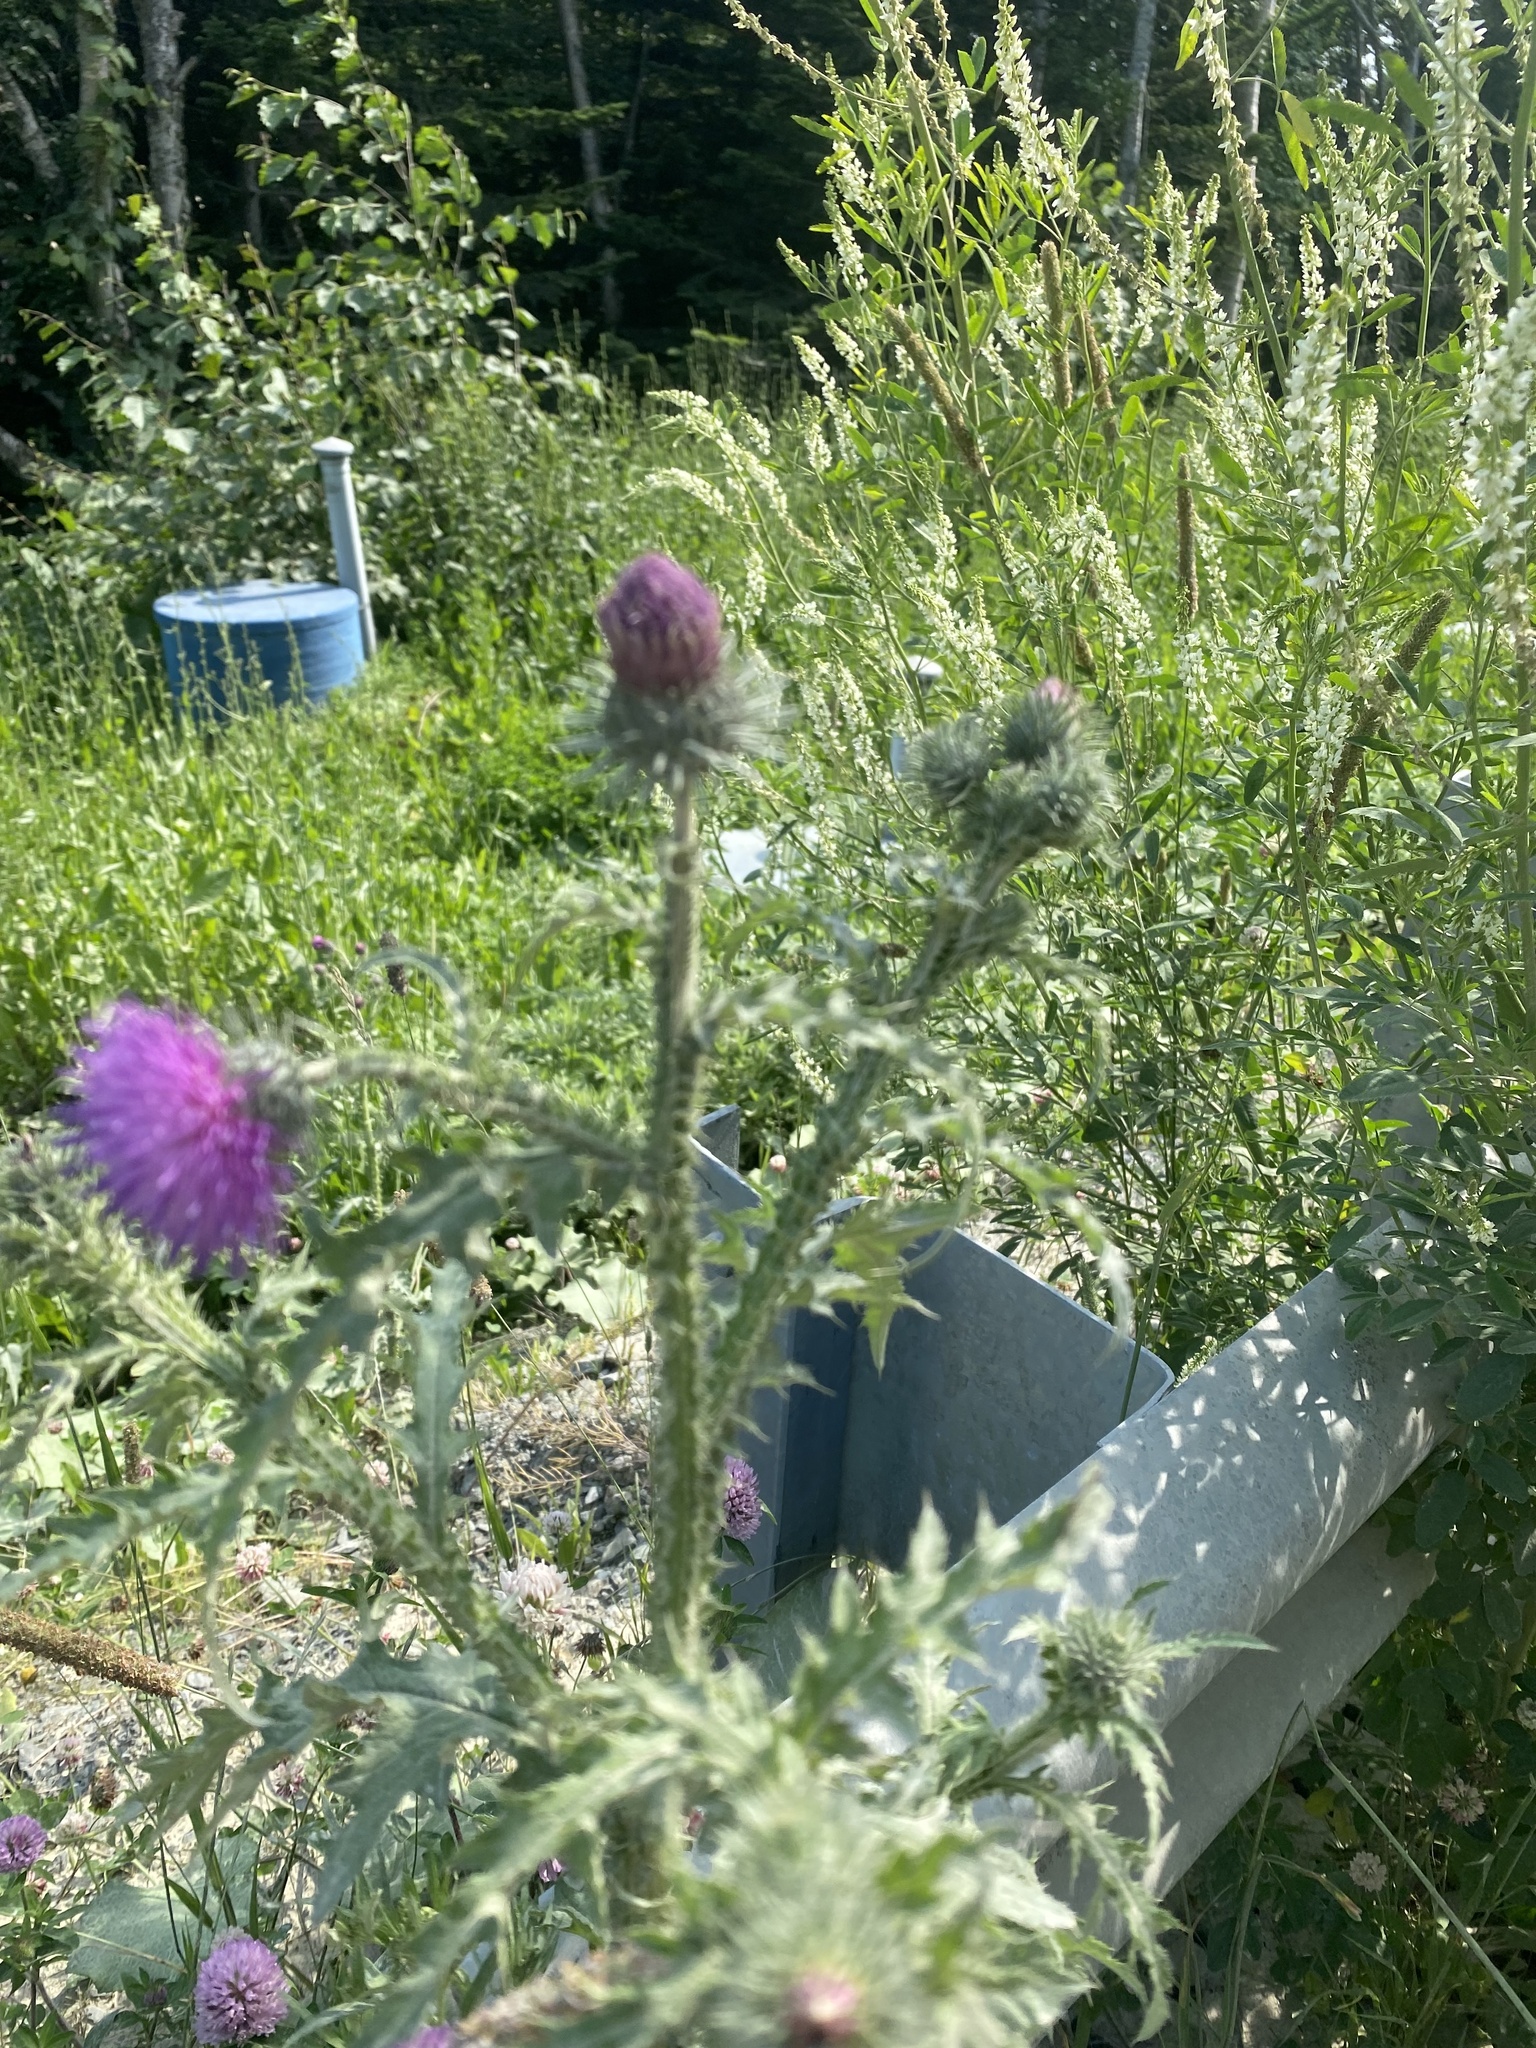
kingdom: Plantae
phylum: Tracheophyta
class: Magnoliopsida
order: Asterales
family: Asteraceae
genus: Carduus
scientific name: Carduus crispus
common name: Welted thistle
